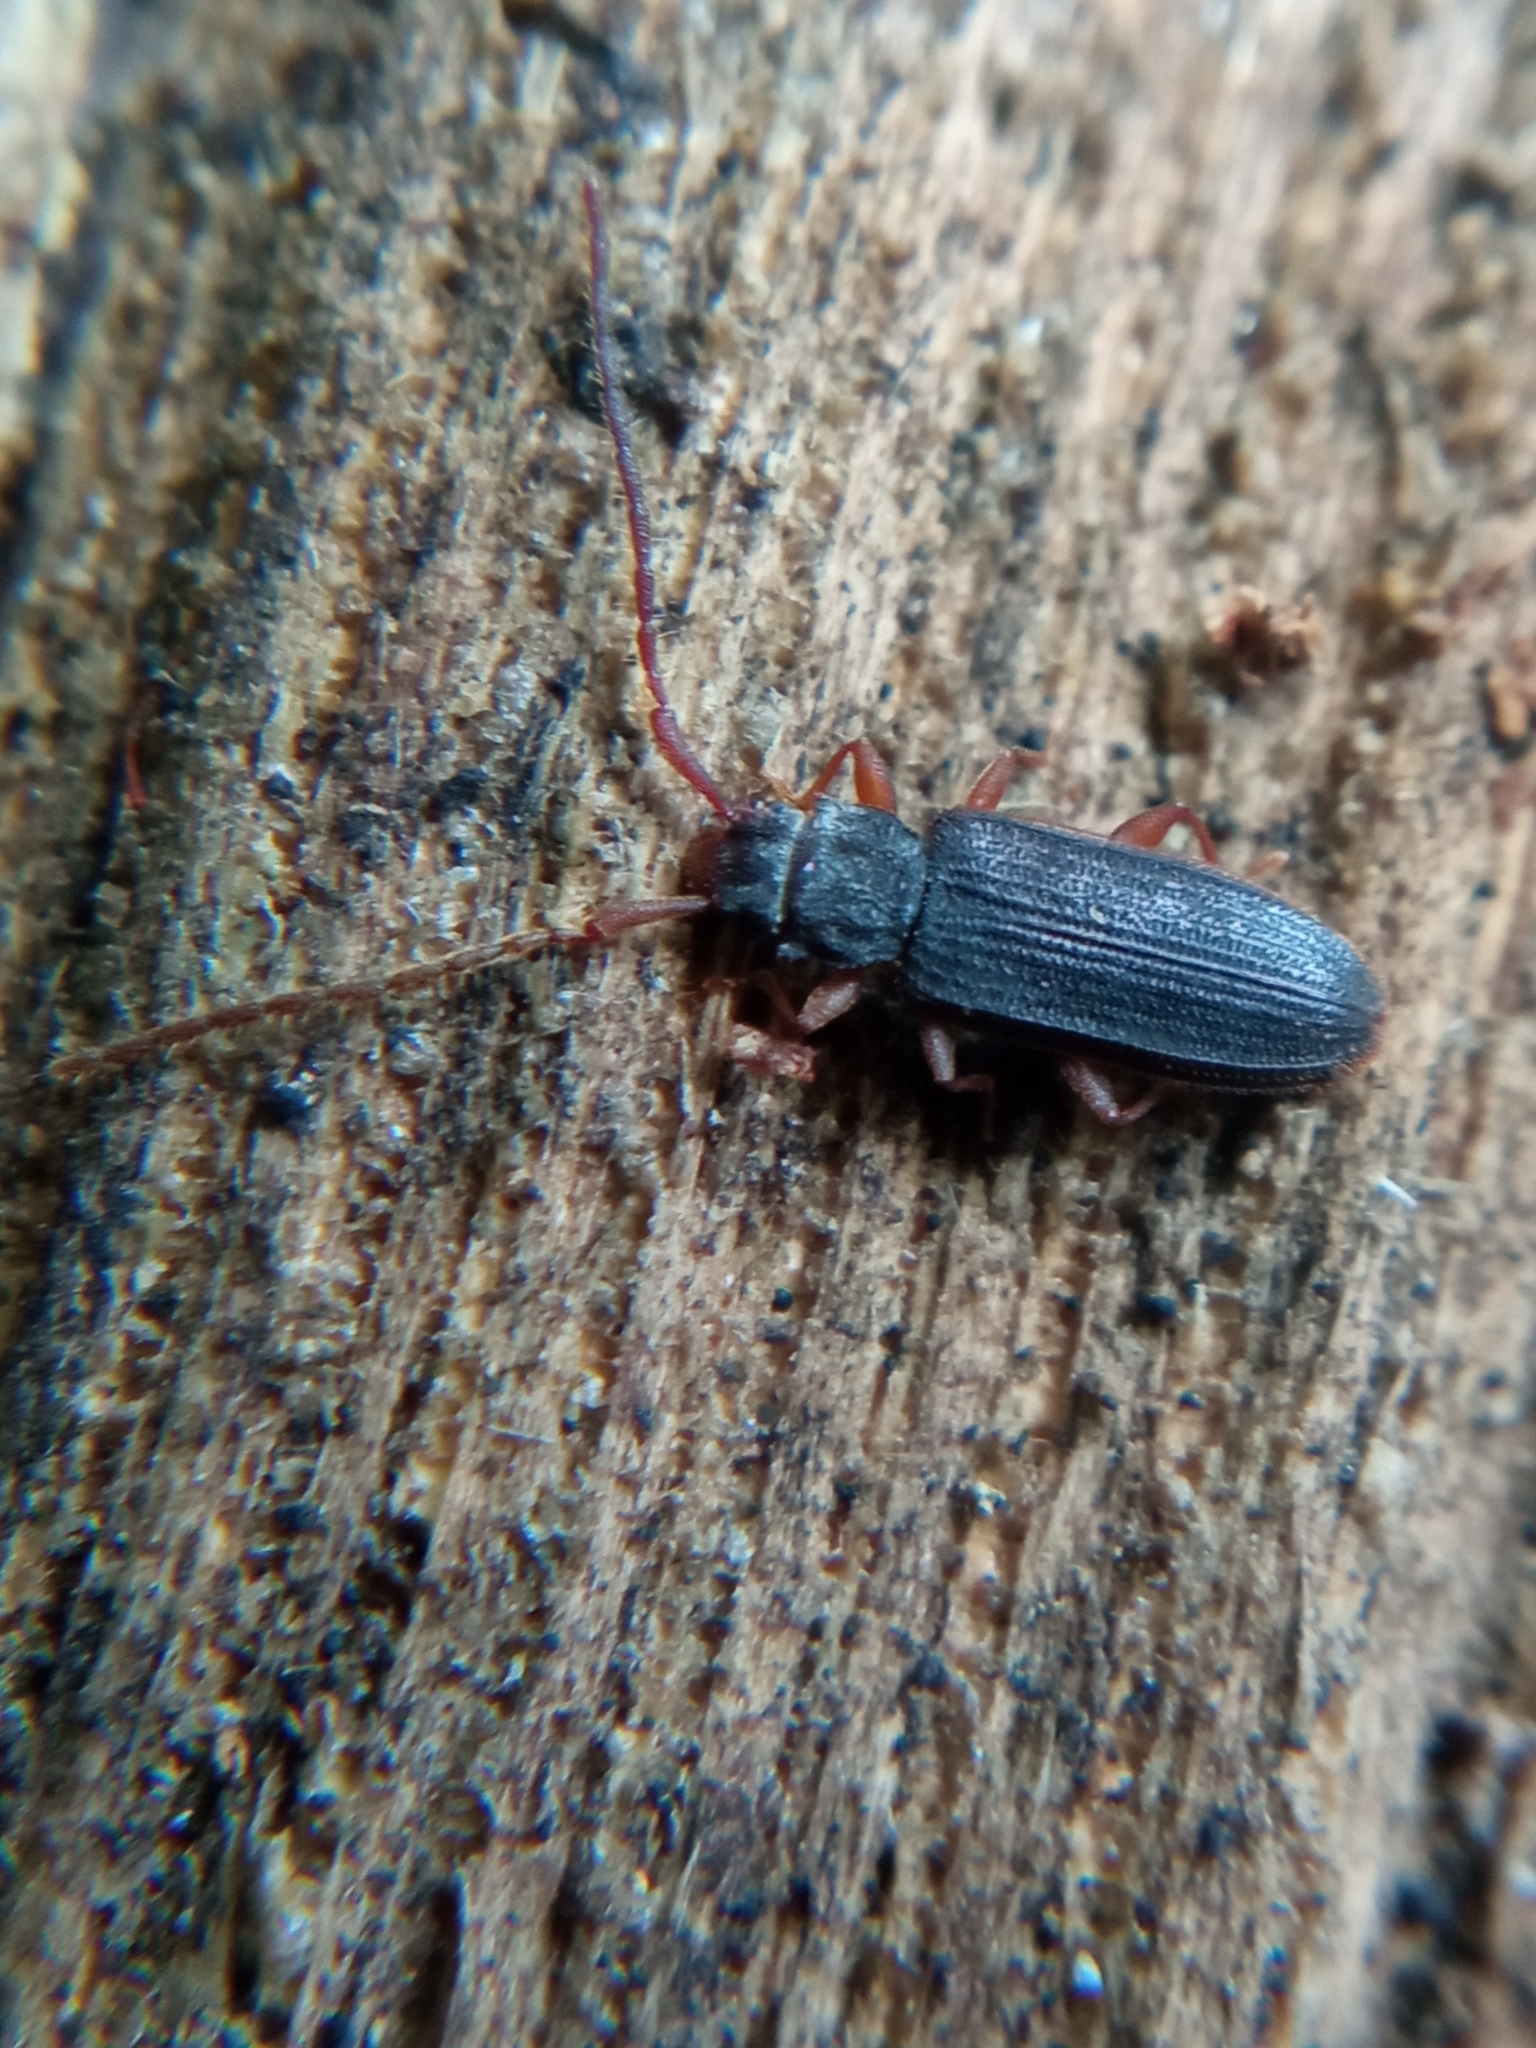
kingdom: Animalia
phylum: Arthropoda
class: Insecta
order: Coleoptera
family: Silvanidae
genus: Uleiota
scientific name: Uleiota planatus
